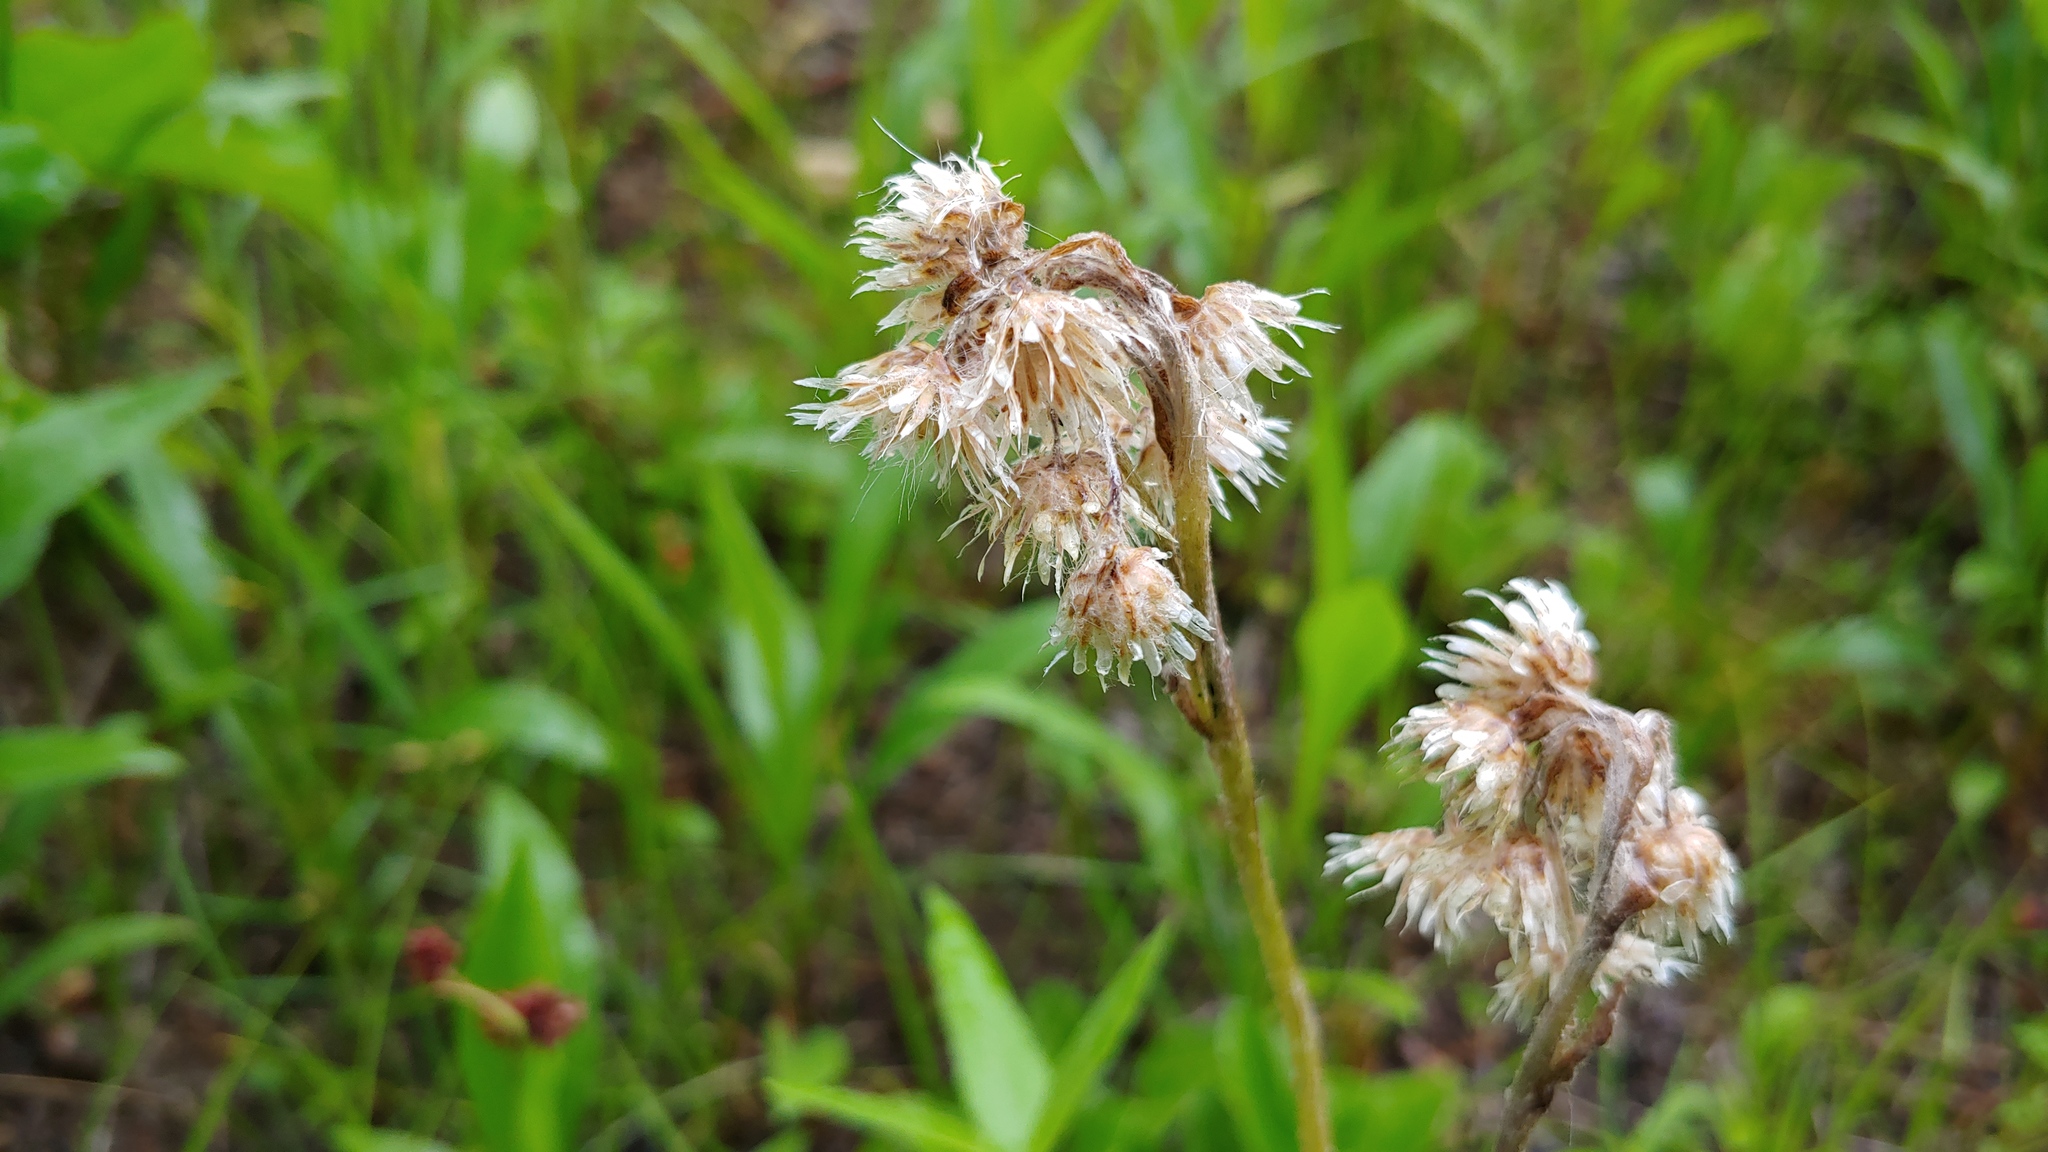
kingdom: Plantae
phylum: Tracheophyta
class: Magnoliopsida
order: Asterales
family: Asteraceae
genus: Antennaria
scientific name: Antennaria parlinii
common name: Parlin's pussytoes
